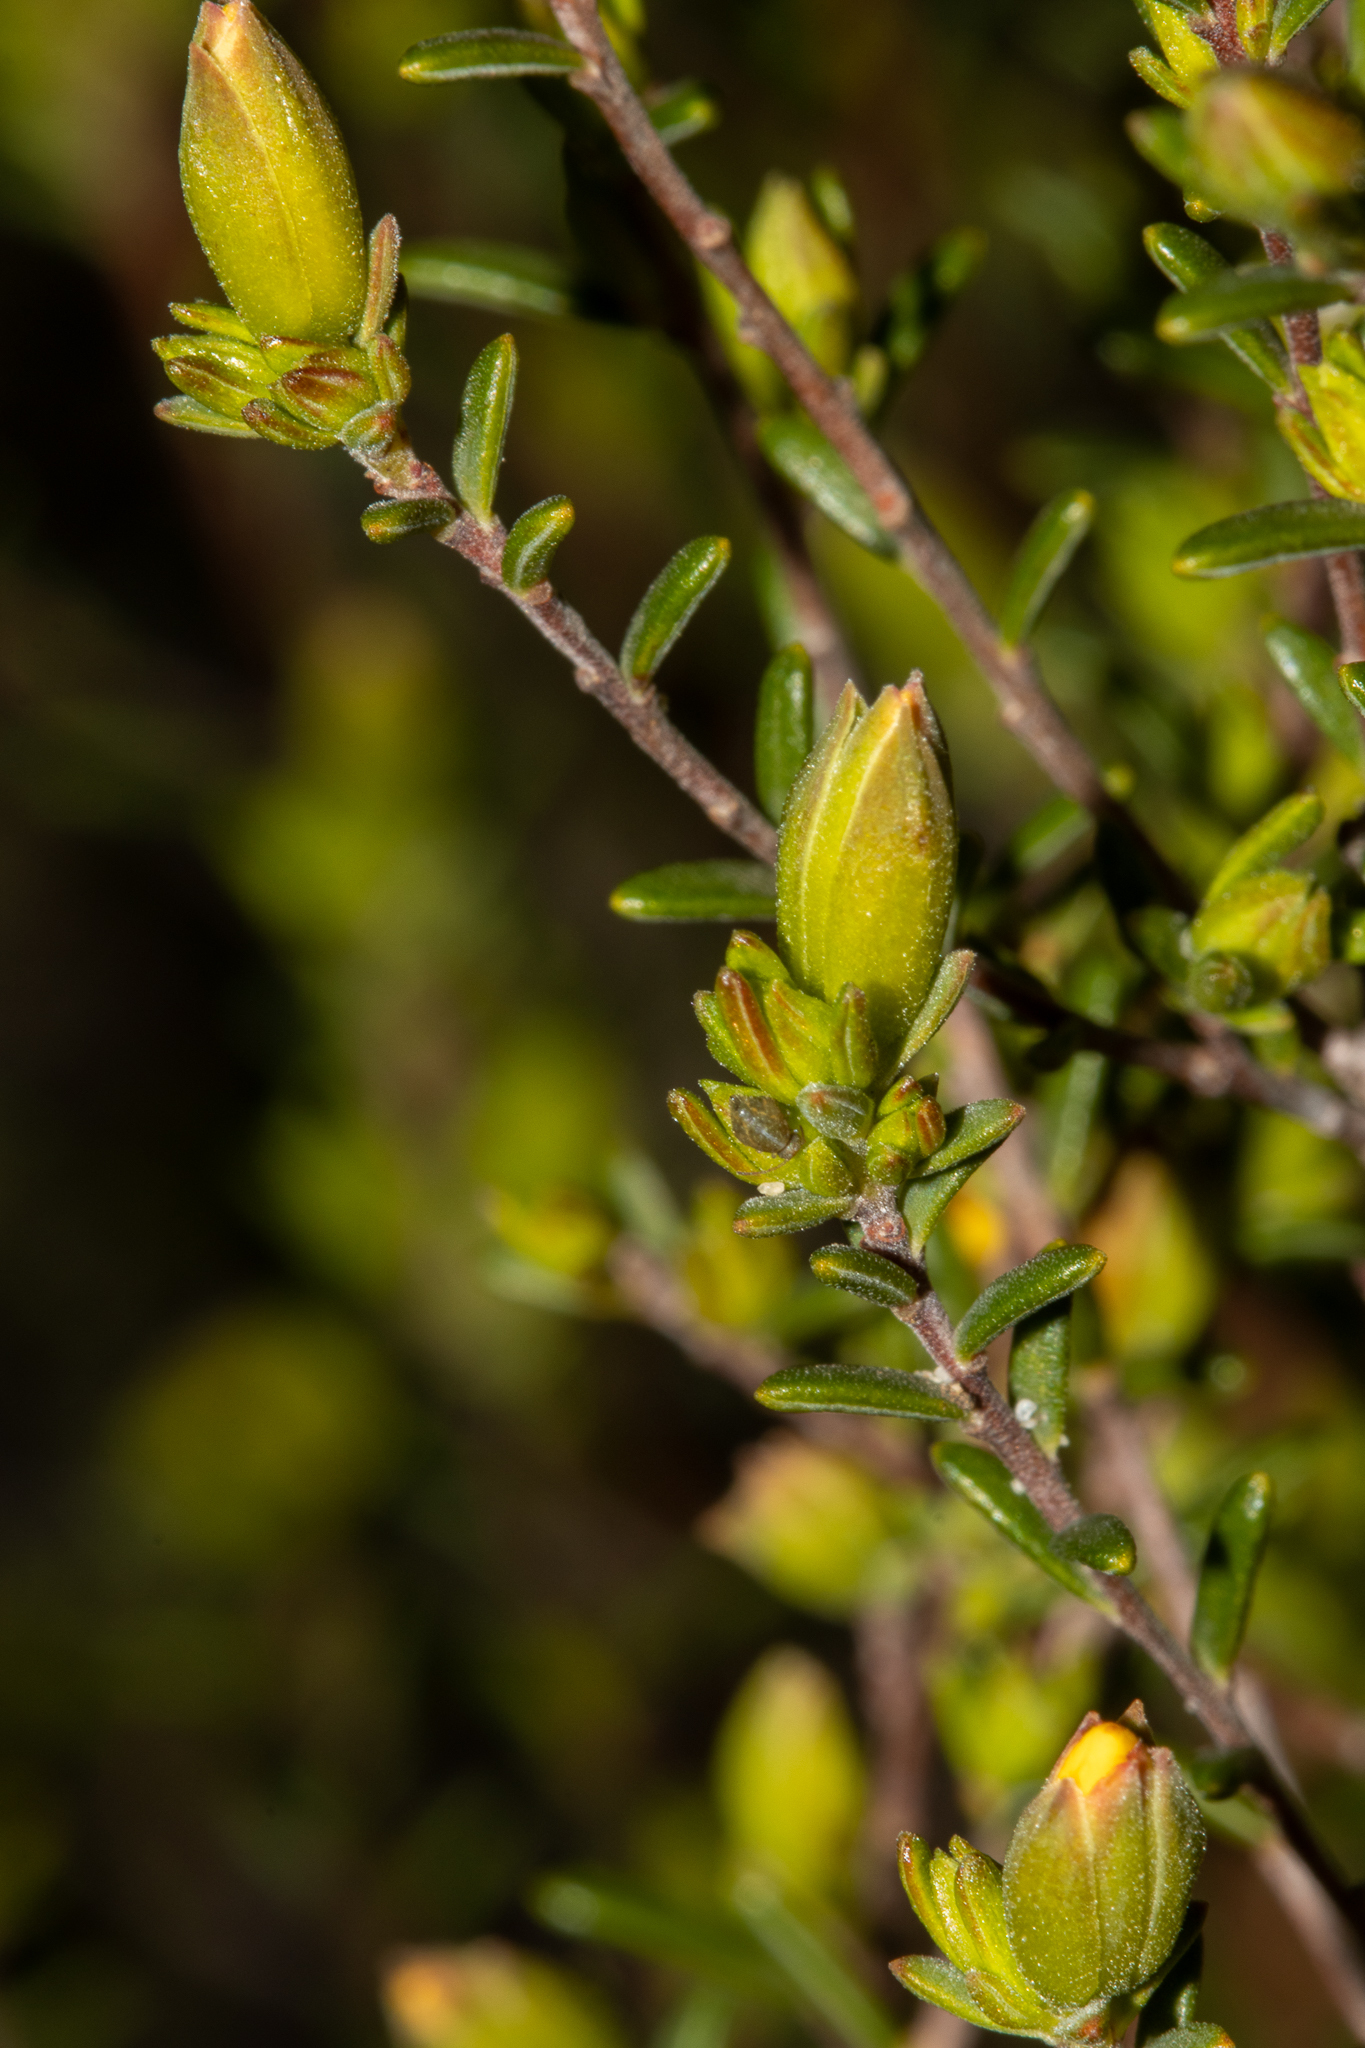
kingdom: Plantae
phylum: Tracheophyta
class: Magnoliopsida
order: Dilleniales
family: Dilleniaceae
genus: Hibbertia
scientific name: Hibbertia devitata
